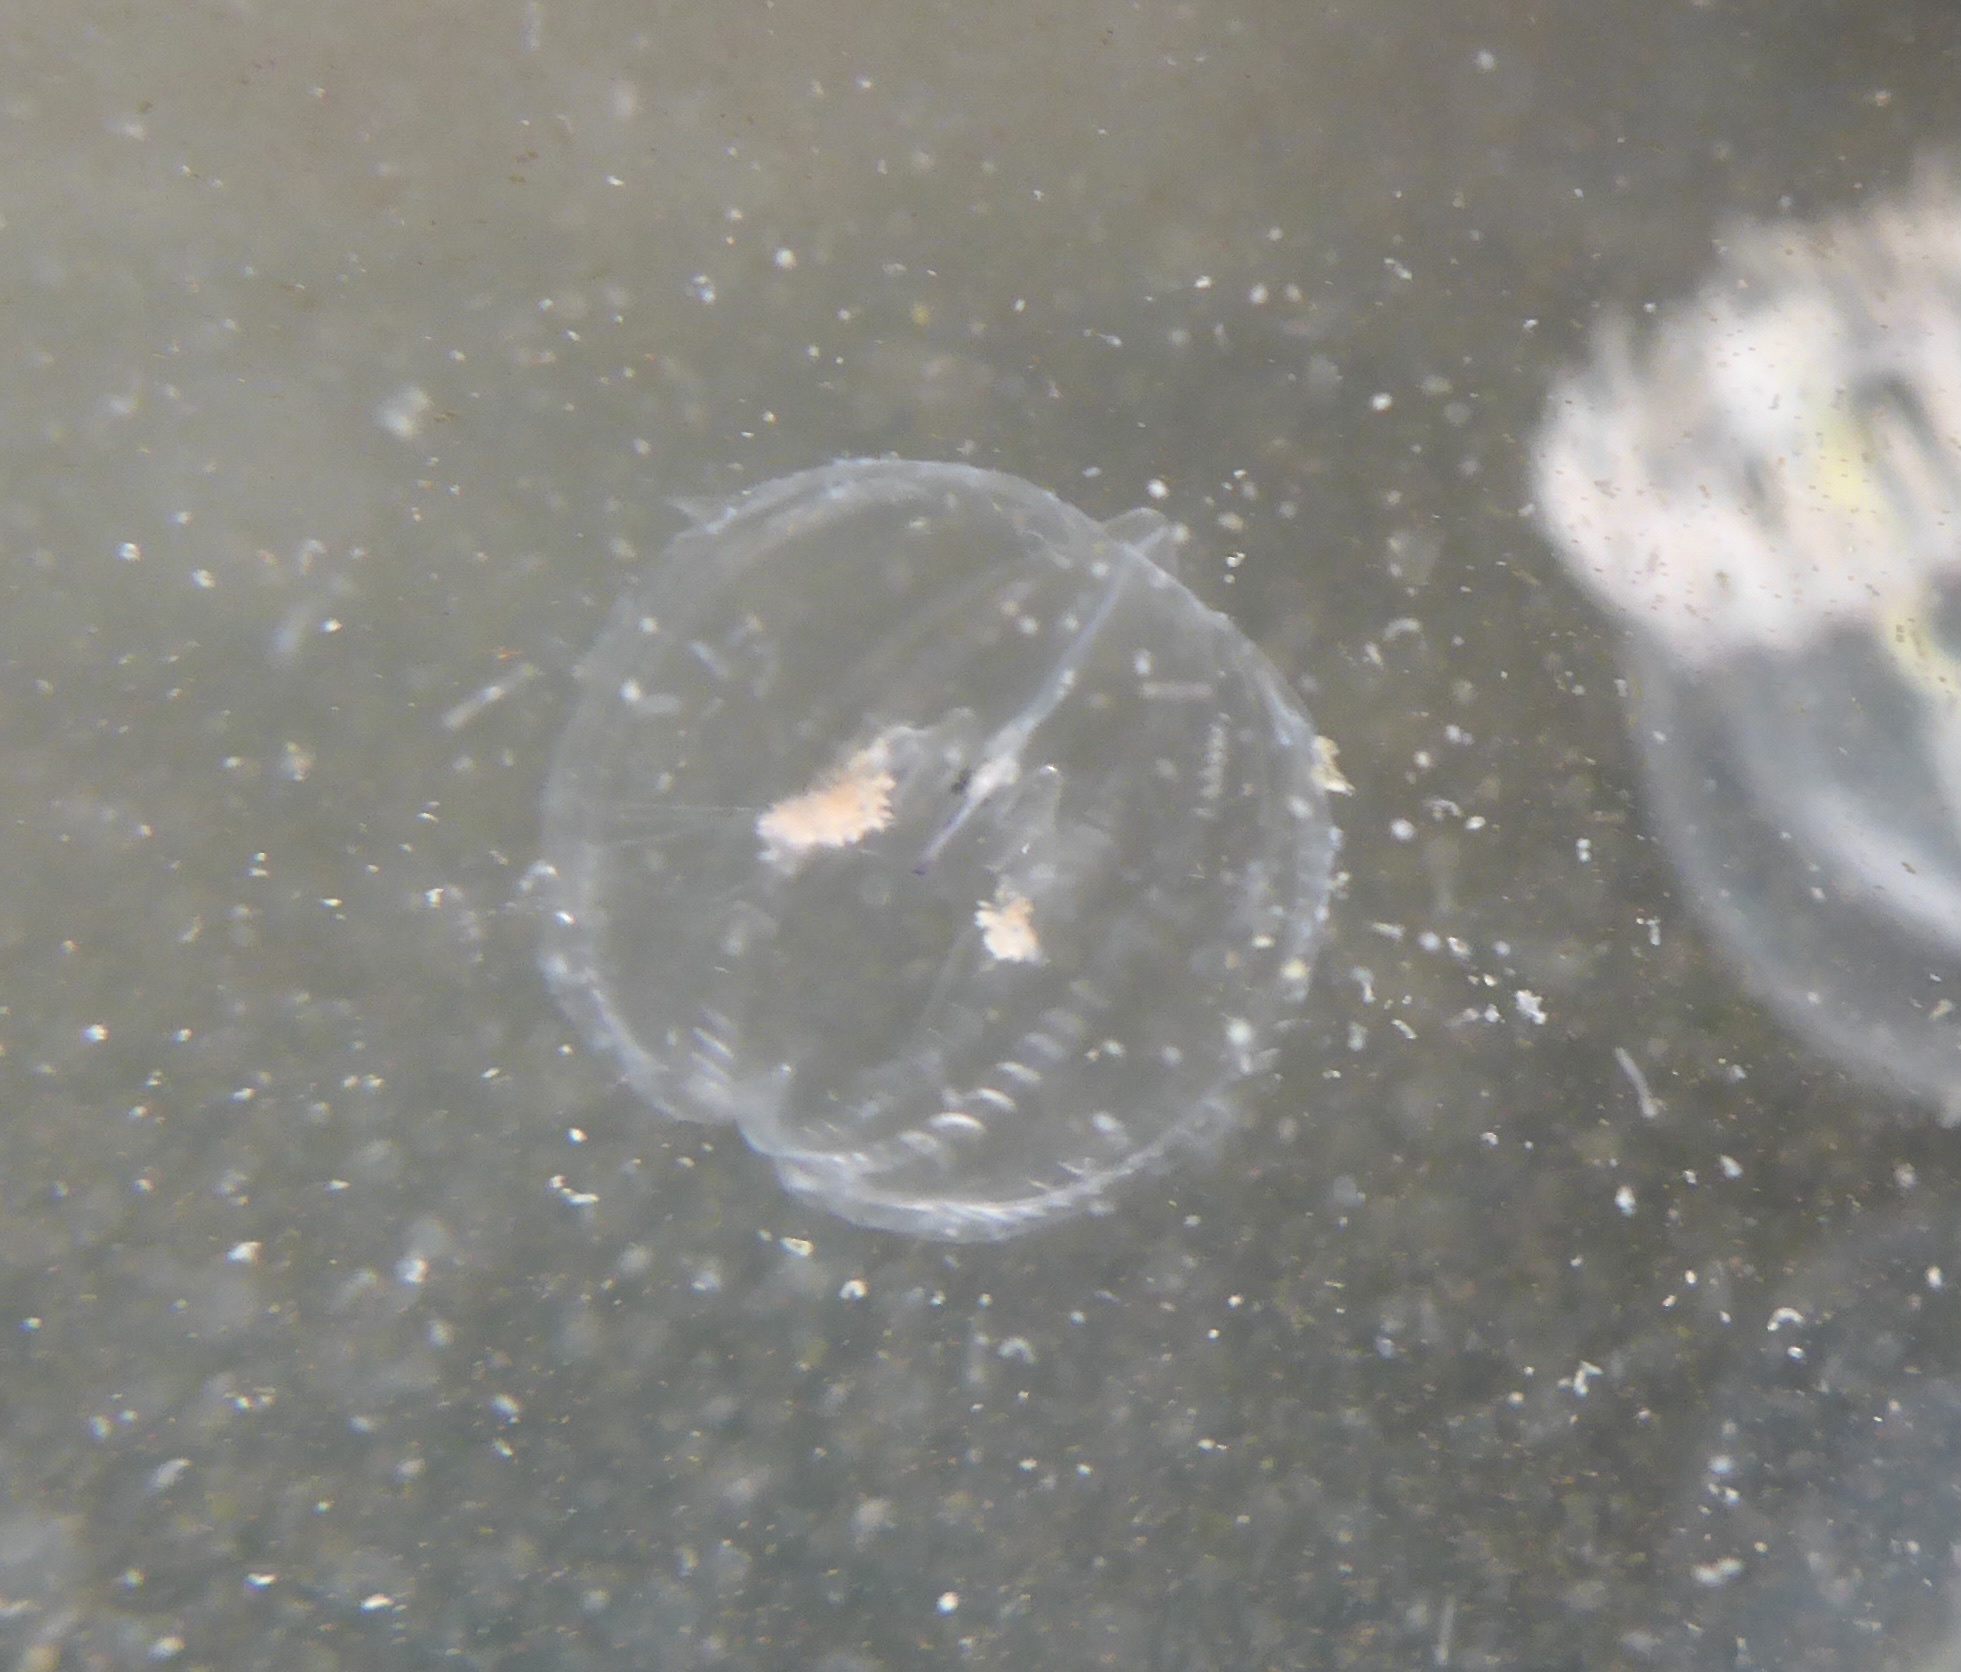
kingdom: Animalia
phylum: Ctenophora
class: Tentaculata
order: Cydippida
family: Pleurobrachiidae
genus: Pleurobrachia
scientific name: Pleurobrachia bachei
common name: Pacific sea gooseberry
